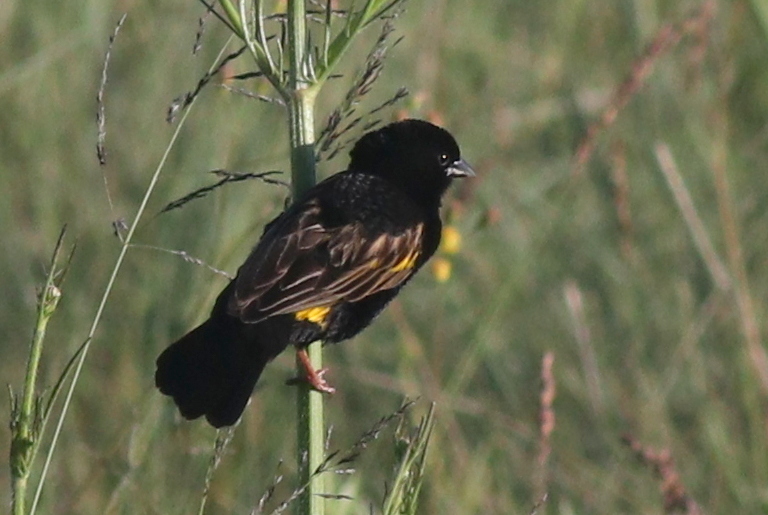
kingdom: Animalia
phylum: Chordata
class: Aves
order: Passeriformes
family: Ploceidae
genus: Euplectes
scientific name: Euplectes capensis
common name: Yellow bishop
